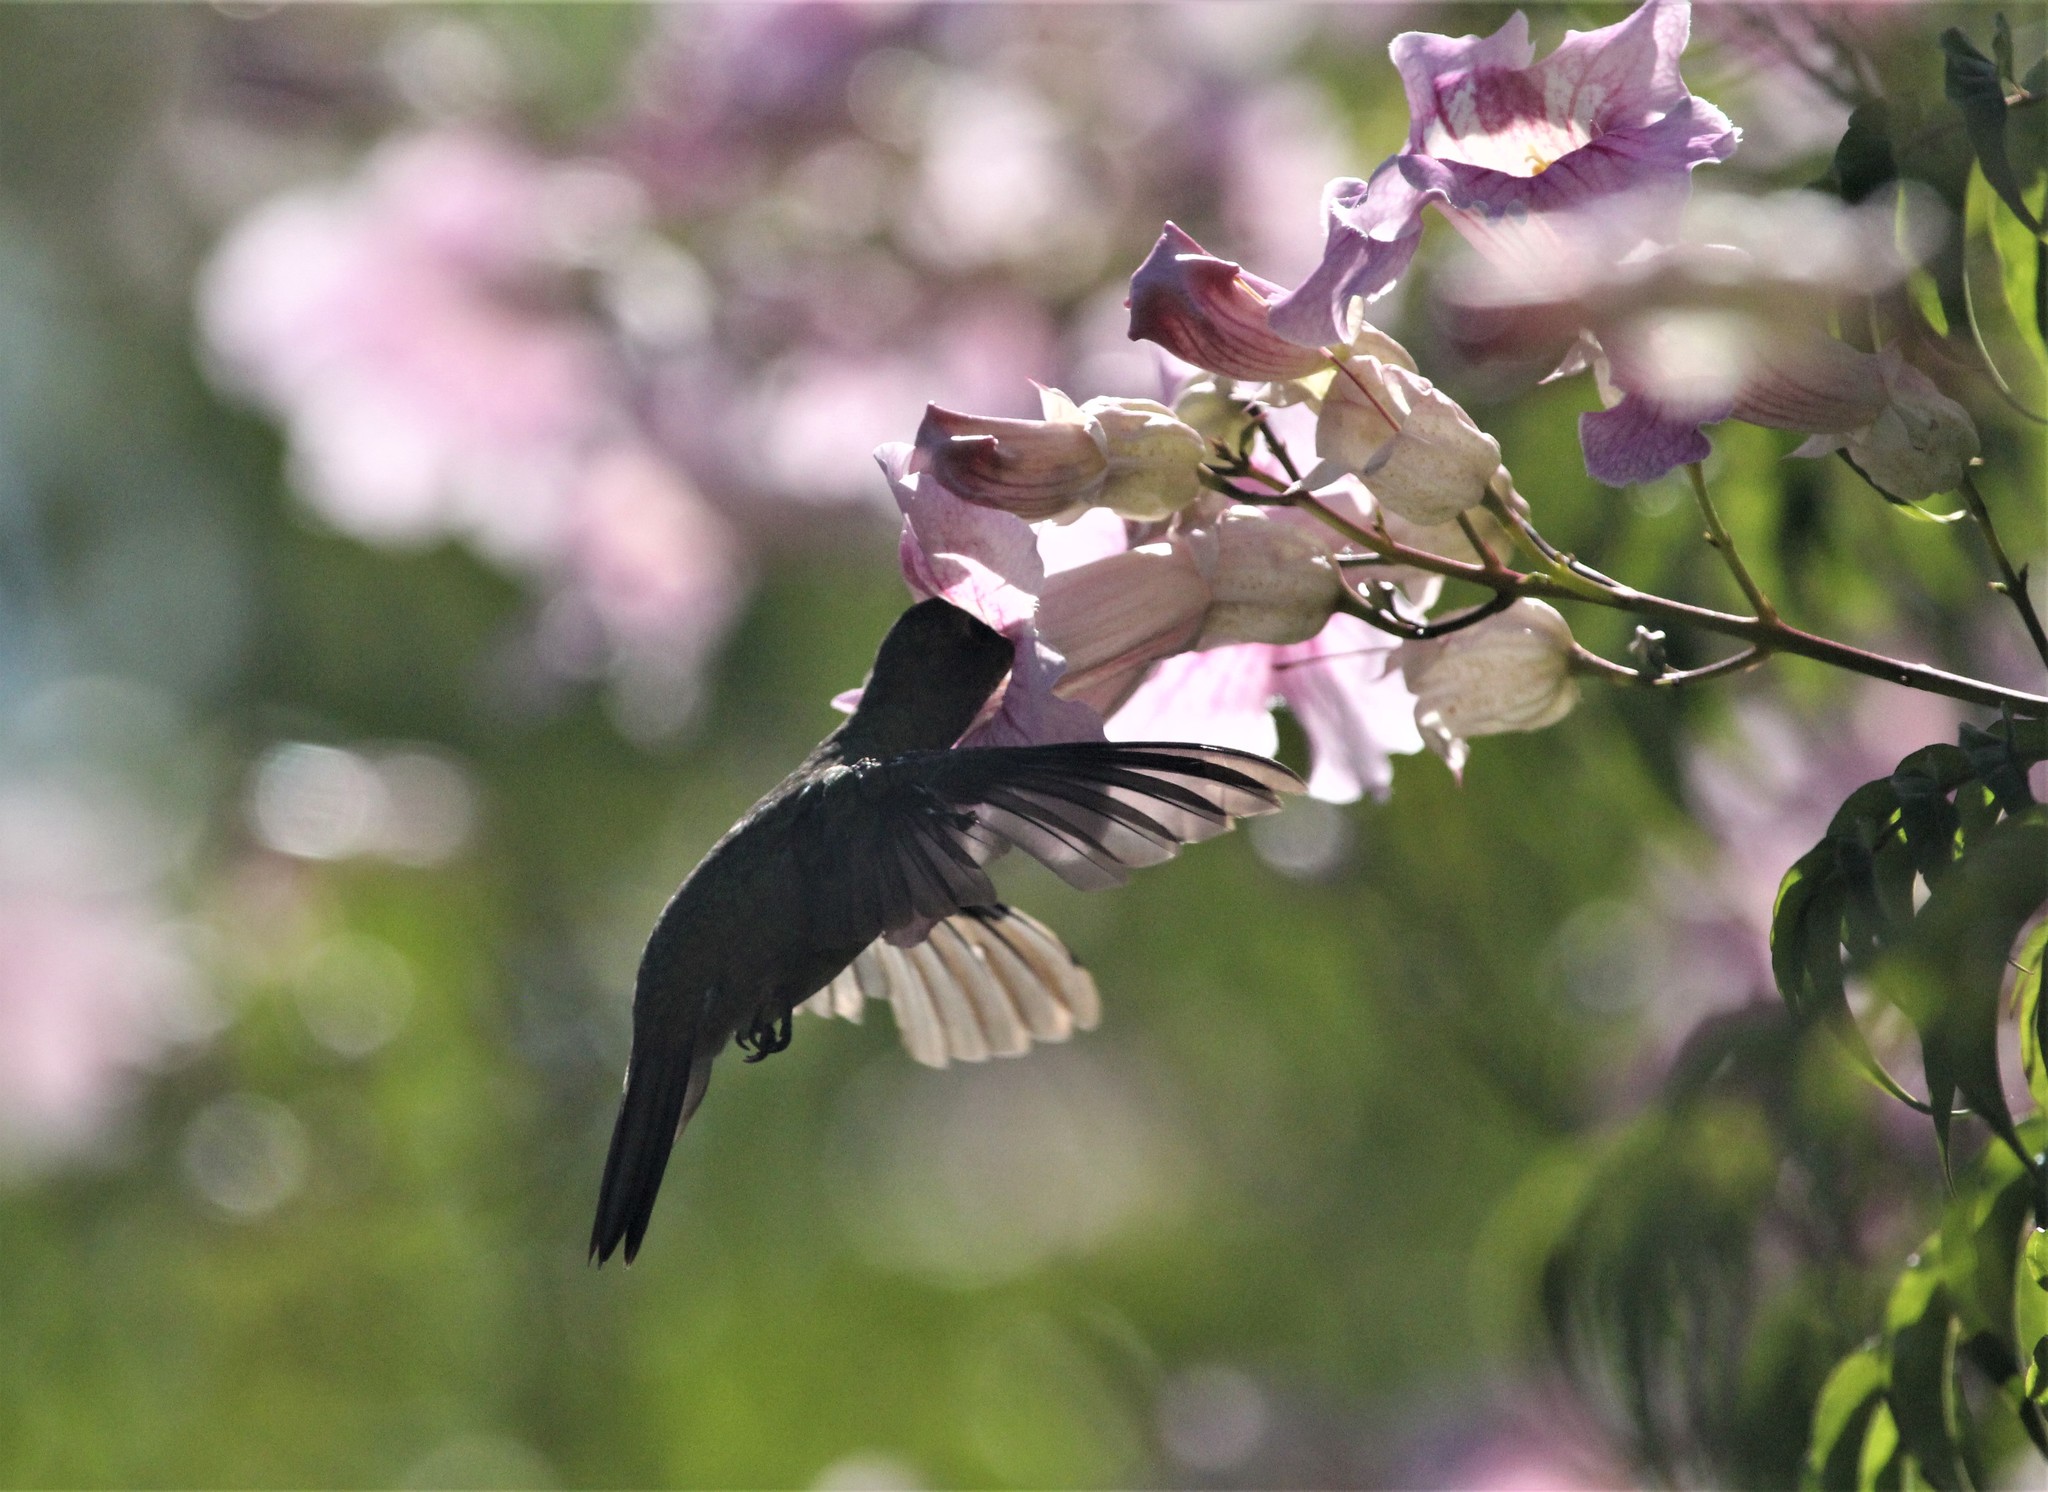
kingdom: Animalia
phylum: Chordata
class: Aves
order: Apodiformes
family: Trochilidae
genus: Hylocharis
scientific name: Hylocharis chrysura
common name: Gilded sapphire
